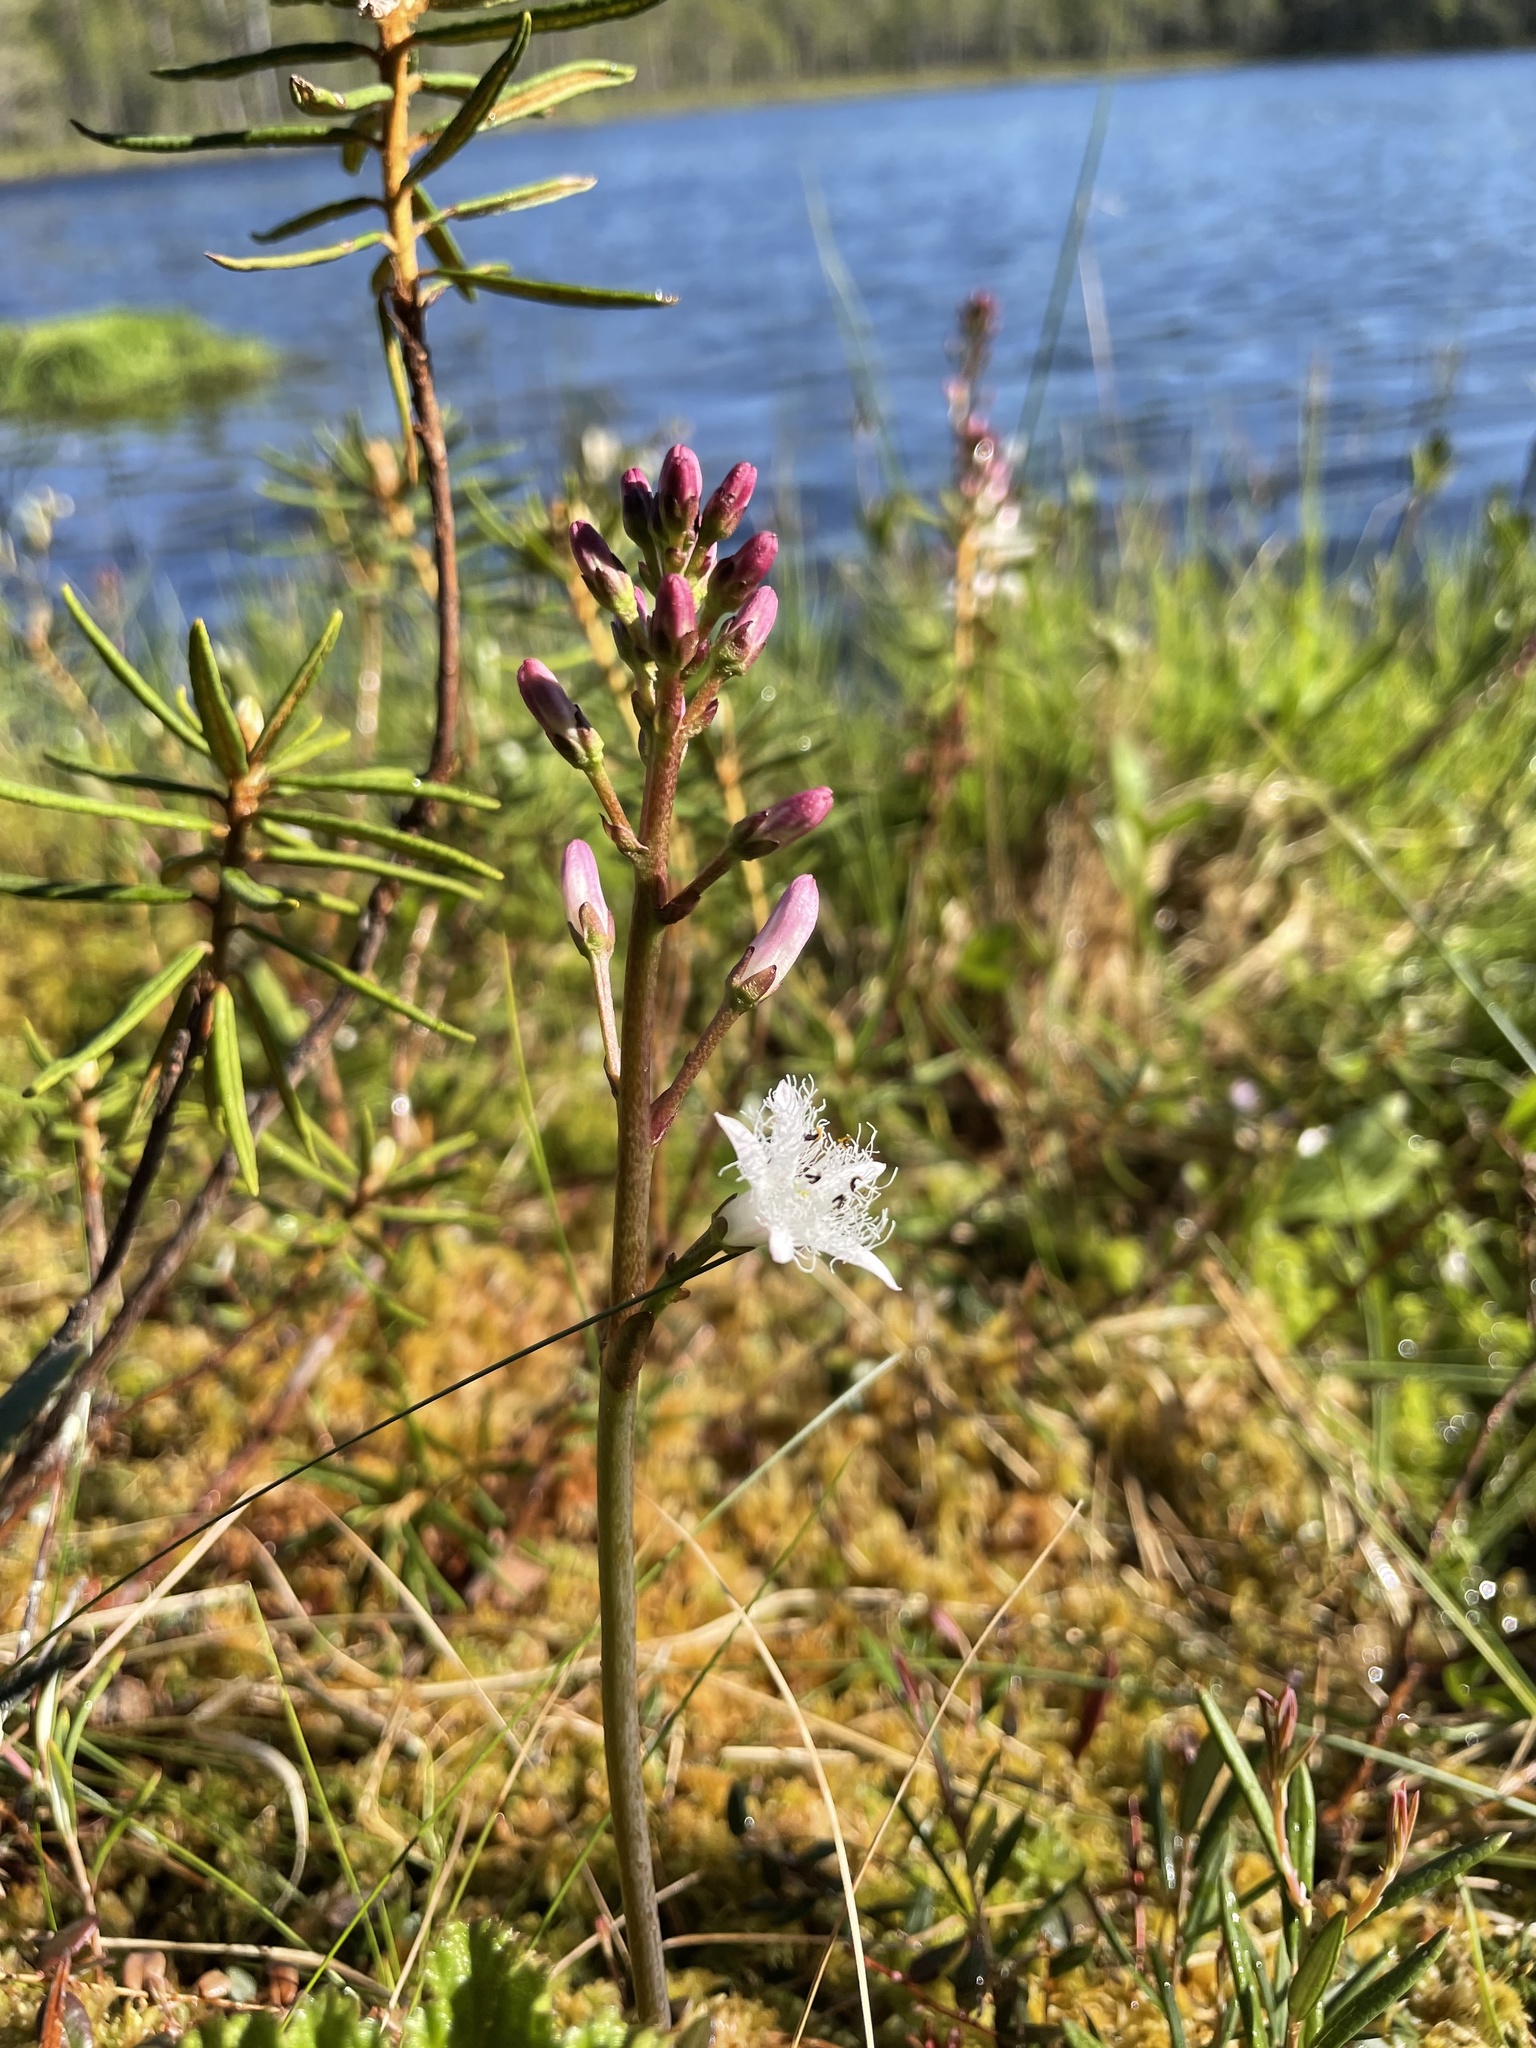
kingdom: Plantae
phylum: Tracheophyta
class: Magnoliopsida
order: Asterales
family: Menyanthaceae
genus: Menyanthes
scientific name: Menyanthes trifoliata
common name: Bogbean
